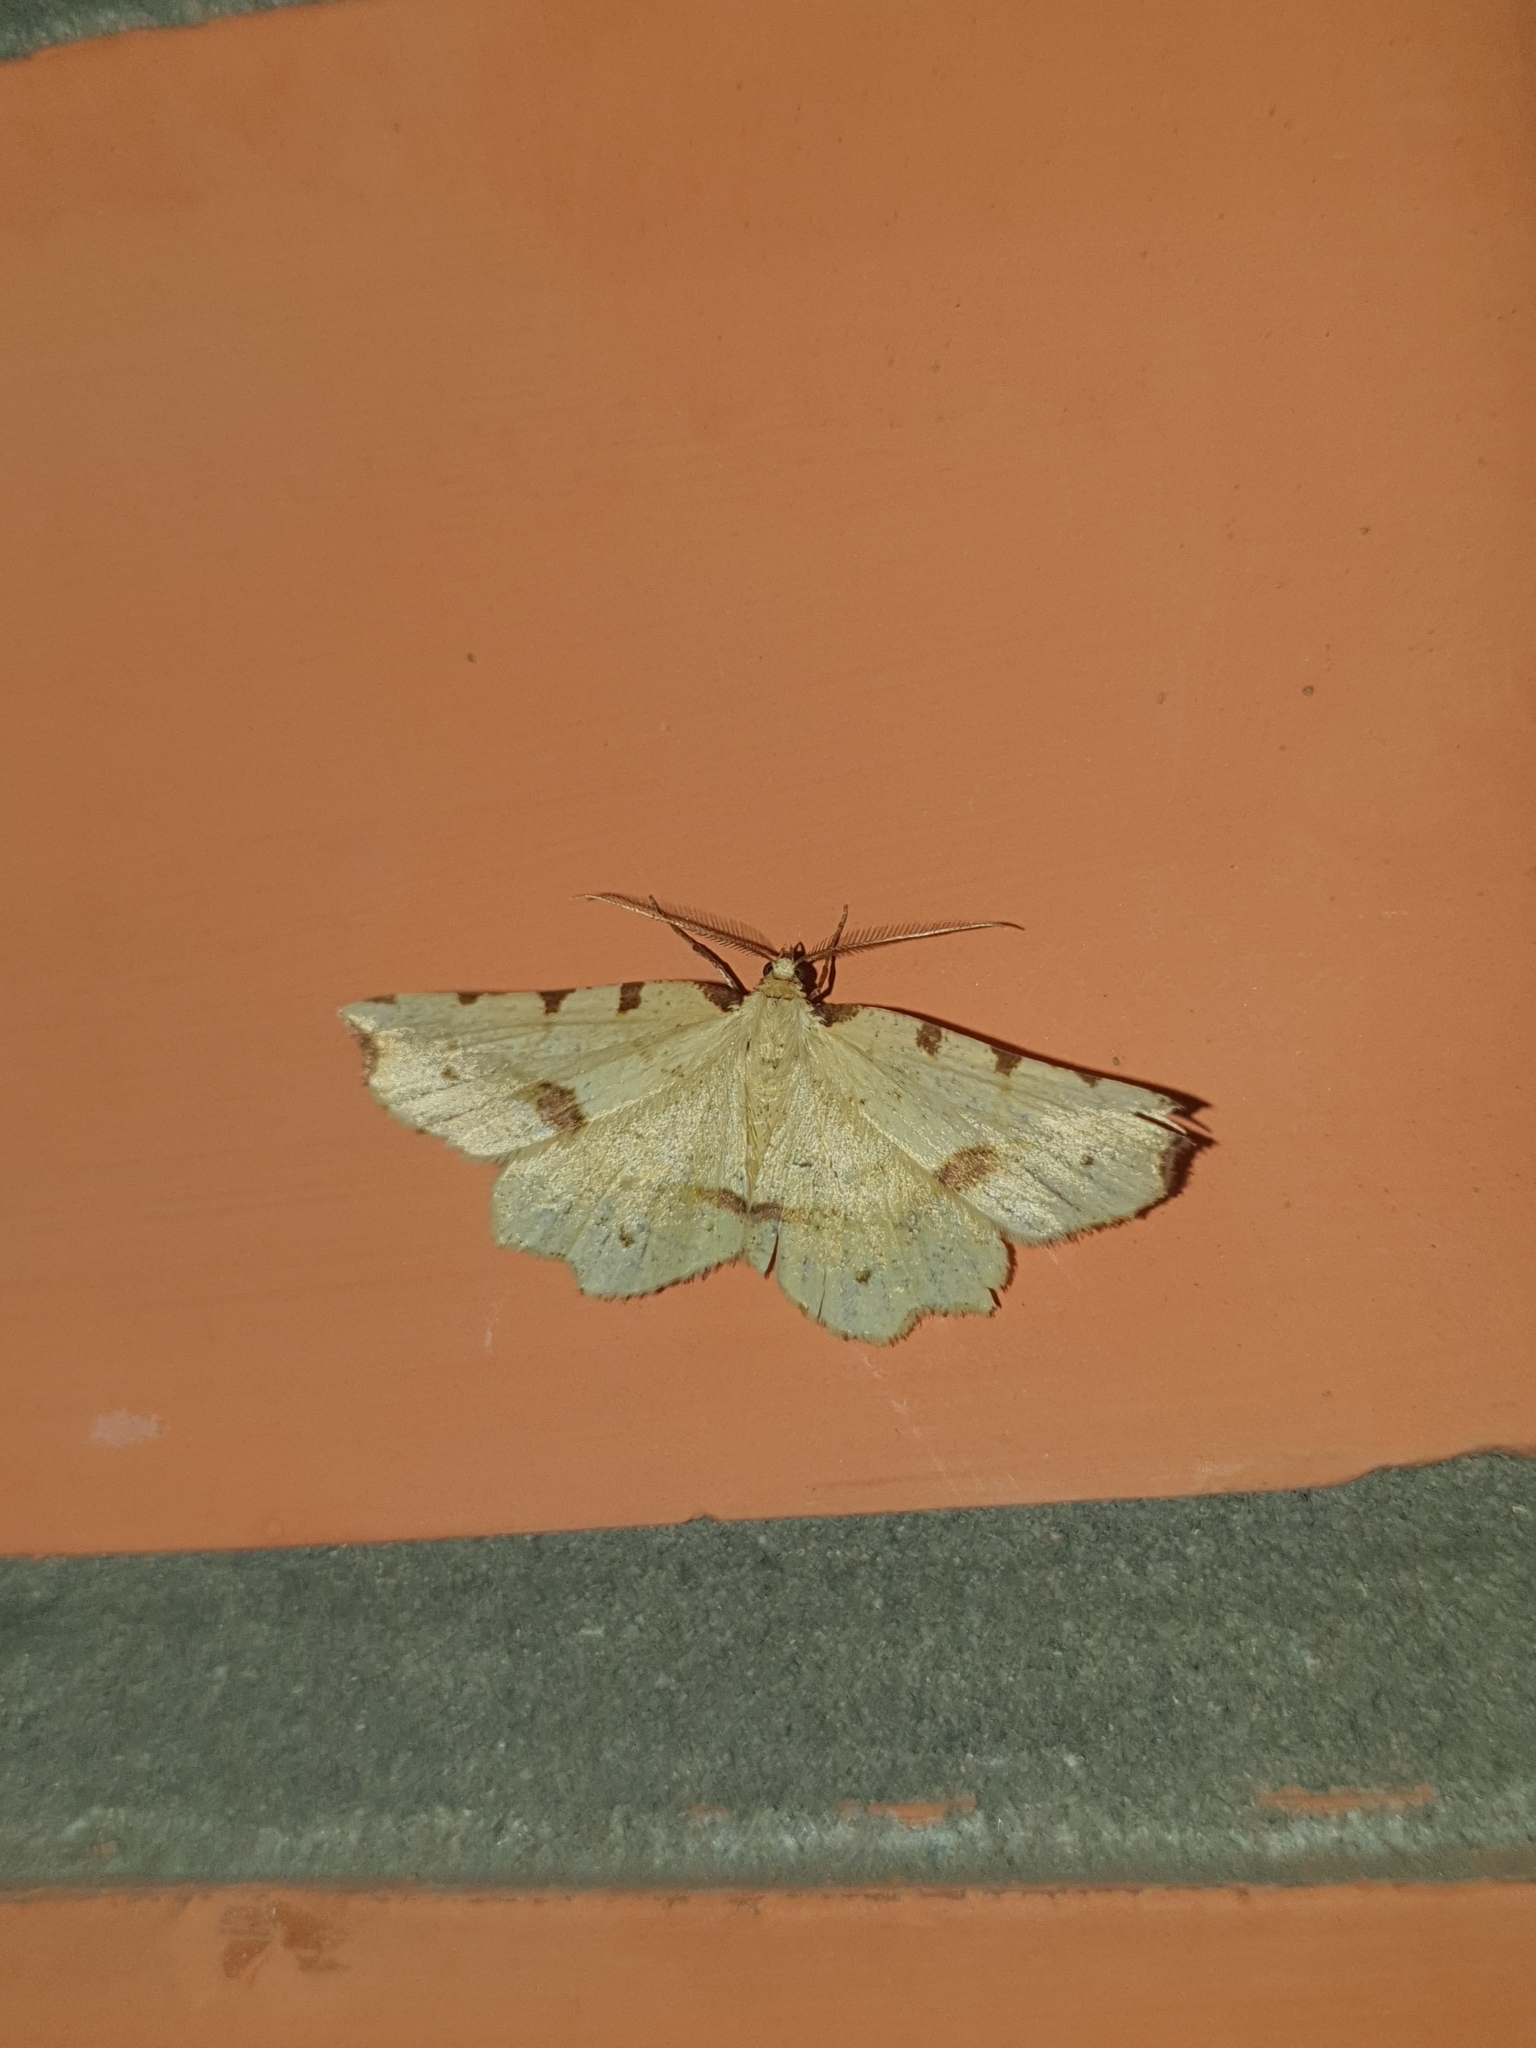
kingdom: Animalia
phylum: Arthropoda
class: Insecta
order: Lepidoptera
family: Geometridae
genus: Therapis
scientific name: Therapis flavicaria
